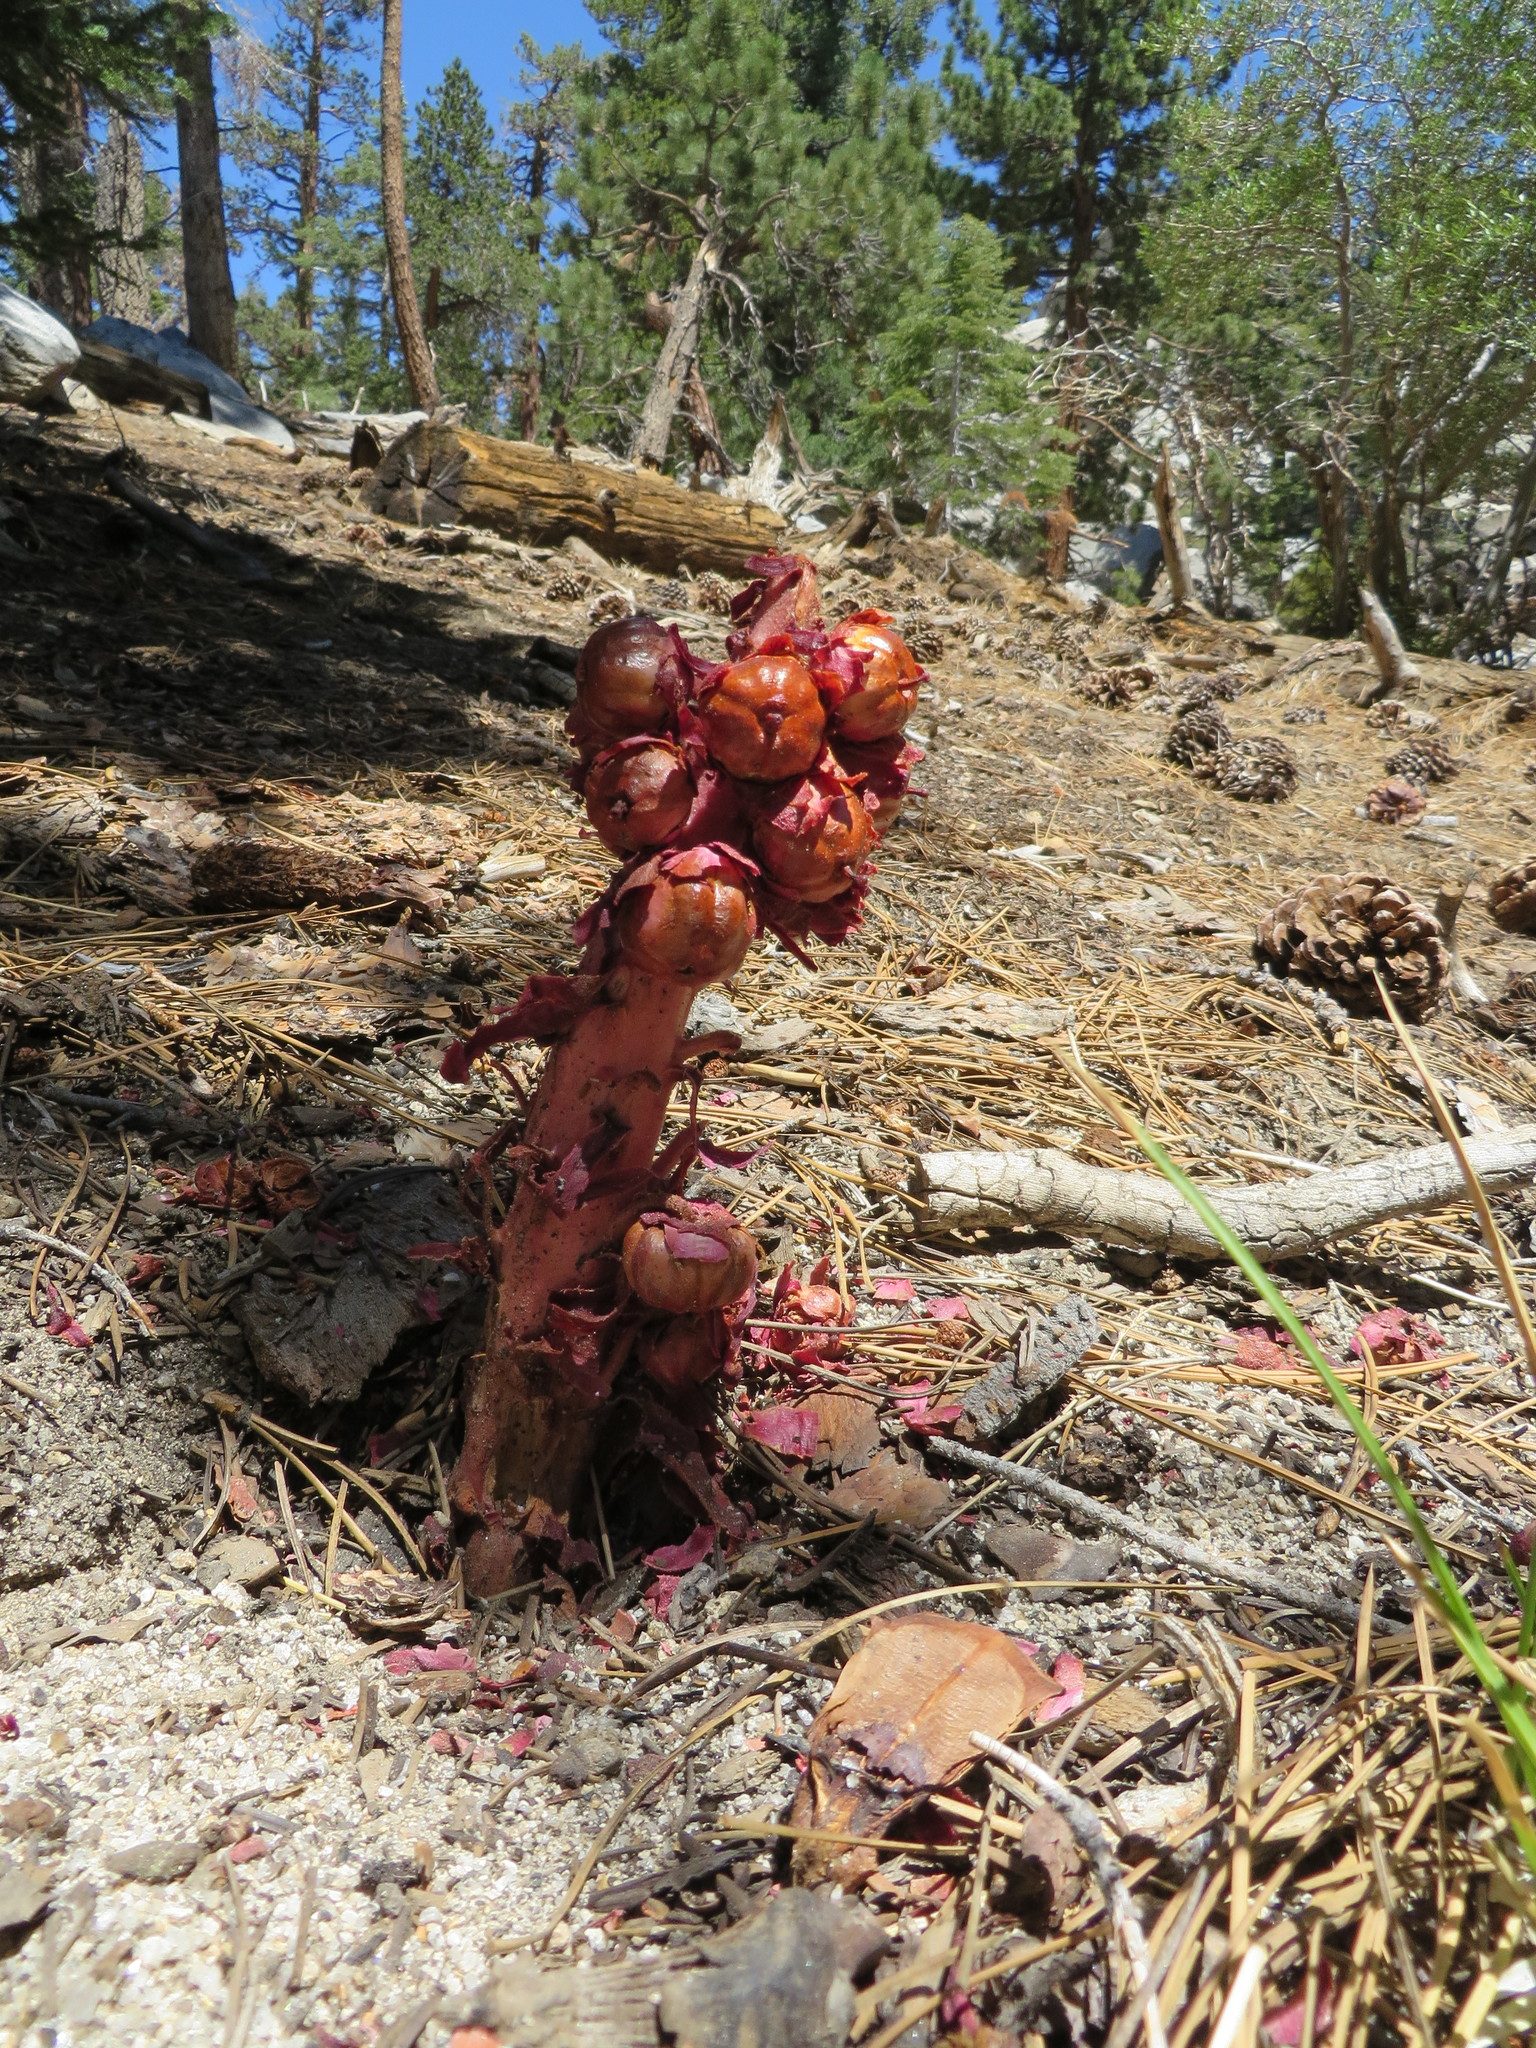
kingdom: Plantae
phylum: Tracheophyta
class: Magnoliopsida
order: Ericales
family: Ericaceae
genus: Sarcodes
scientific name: Sarcodes sanguinea
